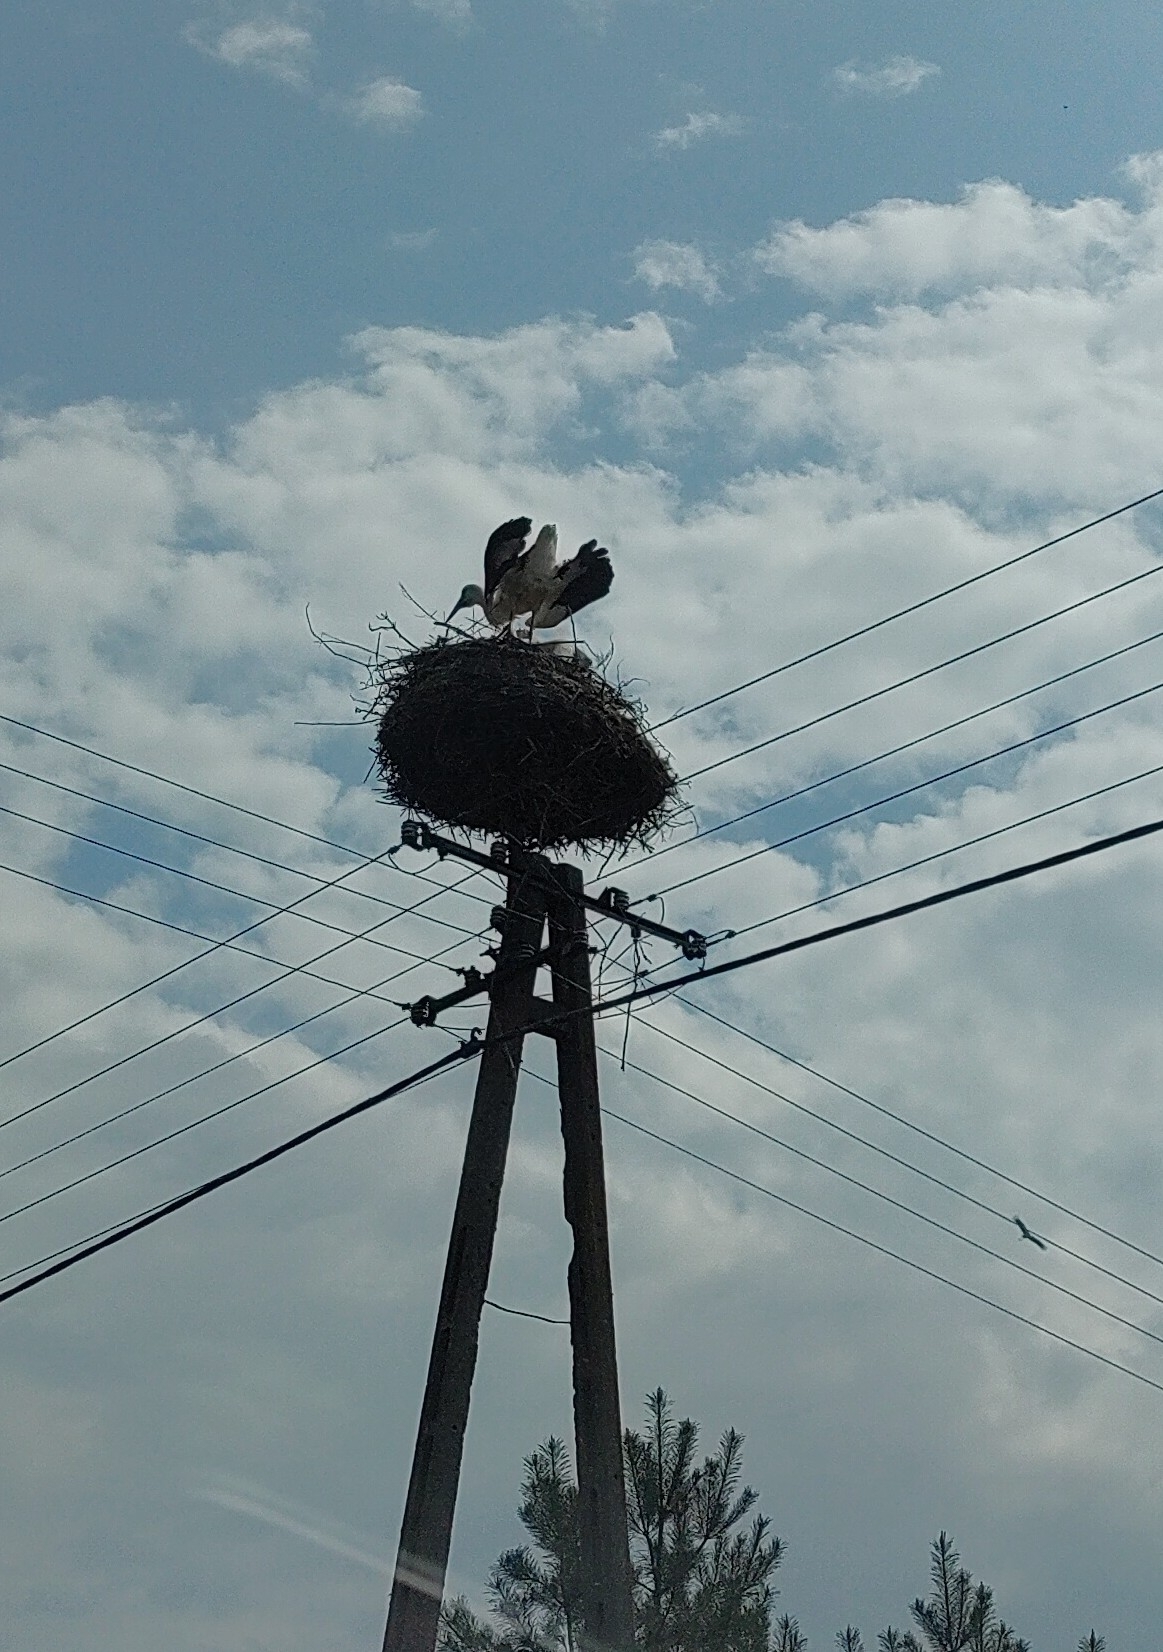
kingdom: Animalia
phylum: Chordata
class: Aves
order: Ciconiiformes
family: Ciconiidae
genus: Ciconia
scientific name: Ciconia ciconia
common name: White stork
